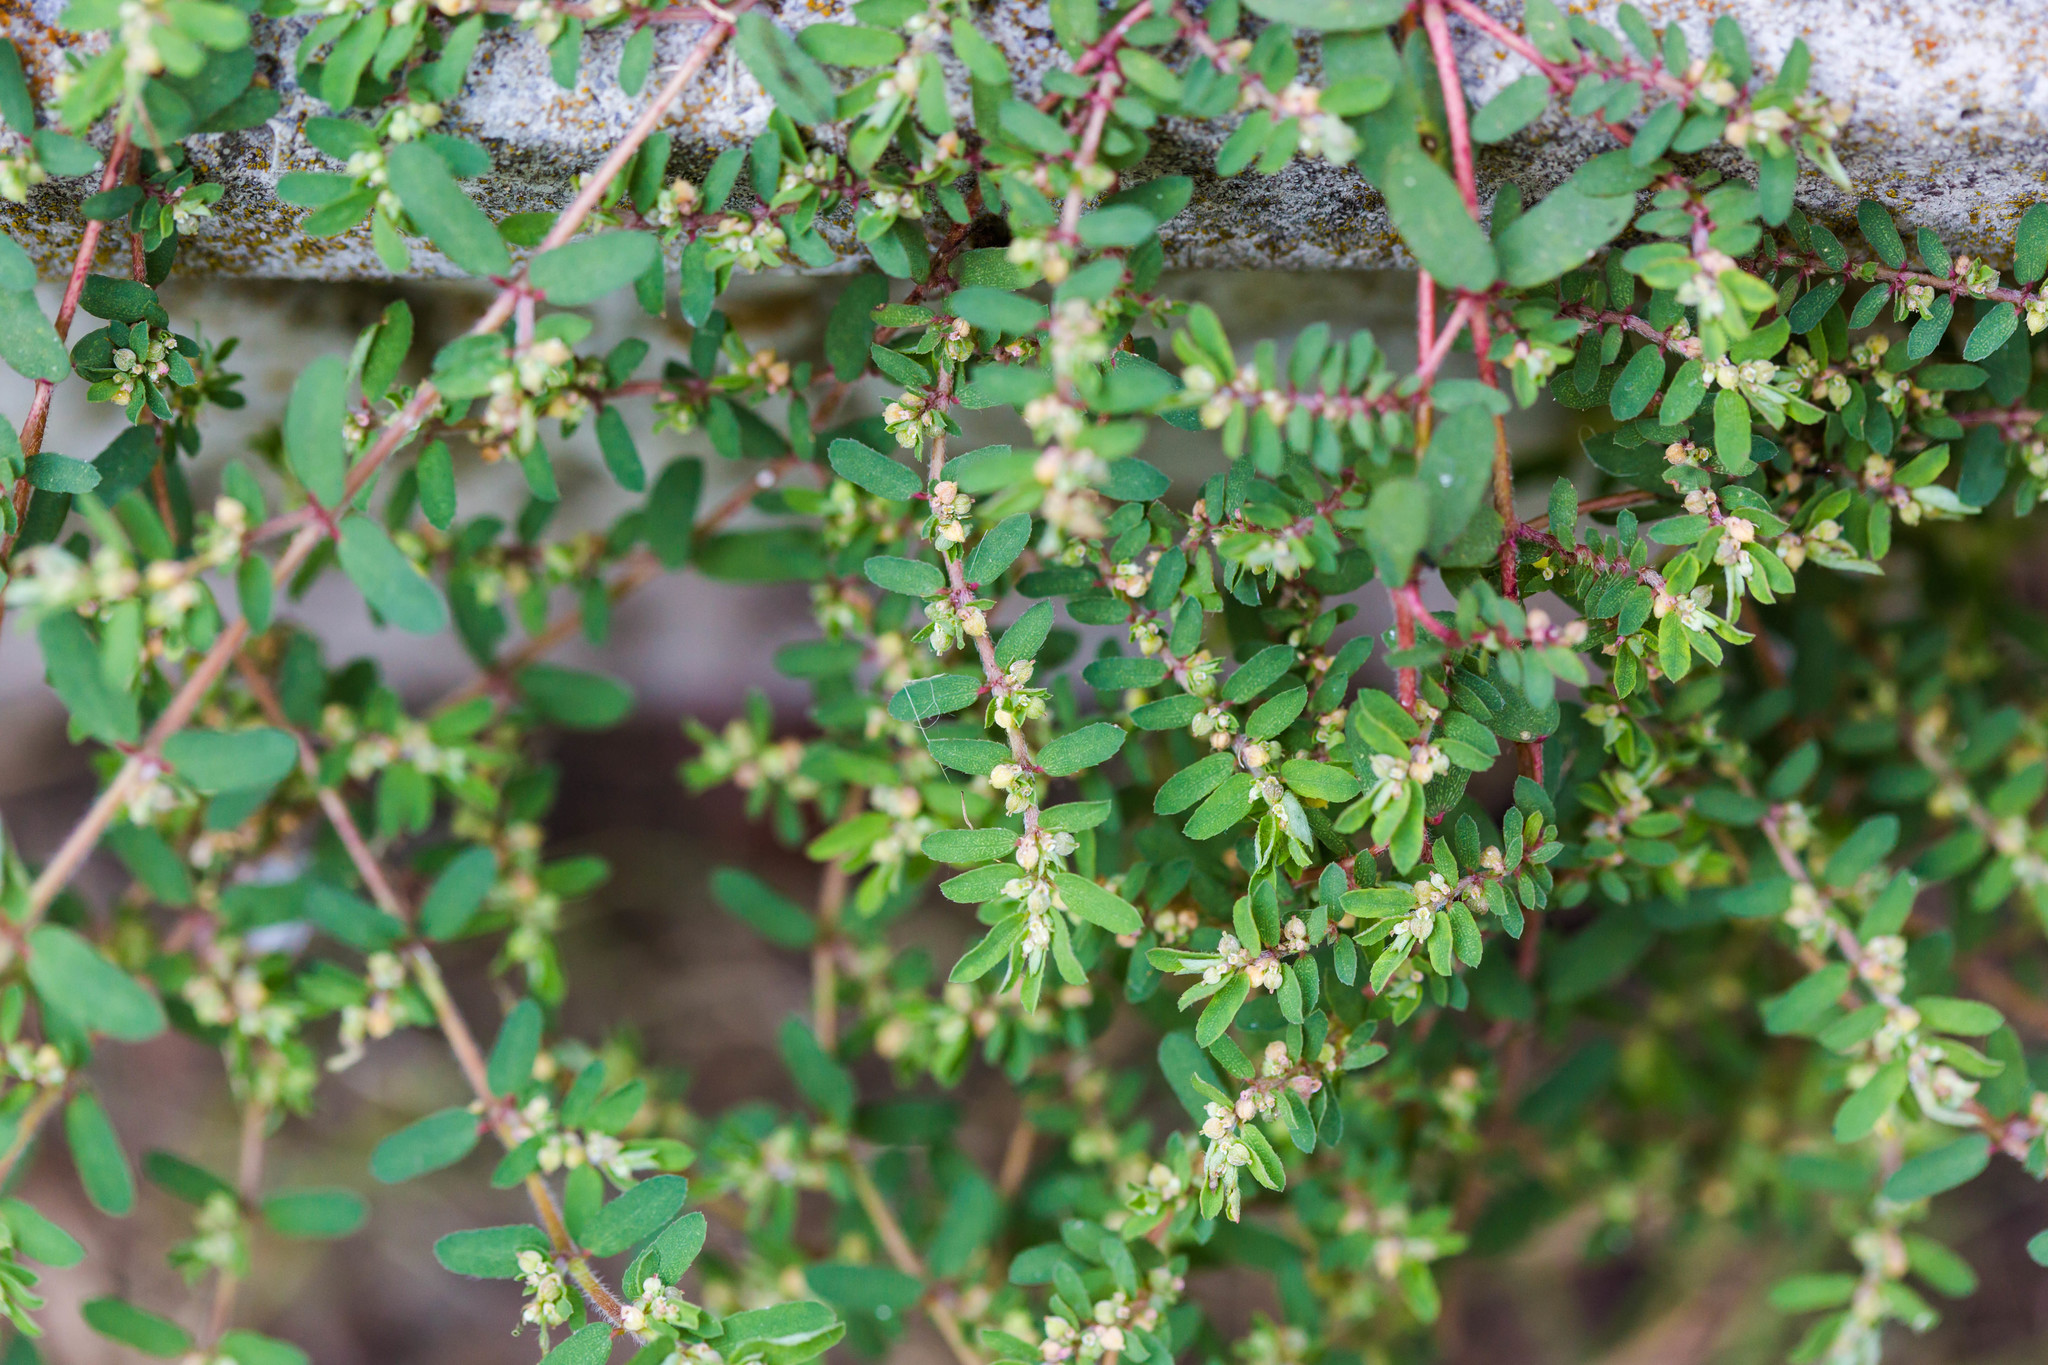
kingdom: Plantae
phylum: Tracheophyta
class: Magnoliopsida
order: Malpighiales
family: Euphorbiaceae
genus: Euphorbia
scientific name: Euphorbia maculata
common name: Spotted spurge
